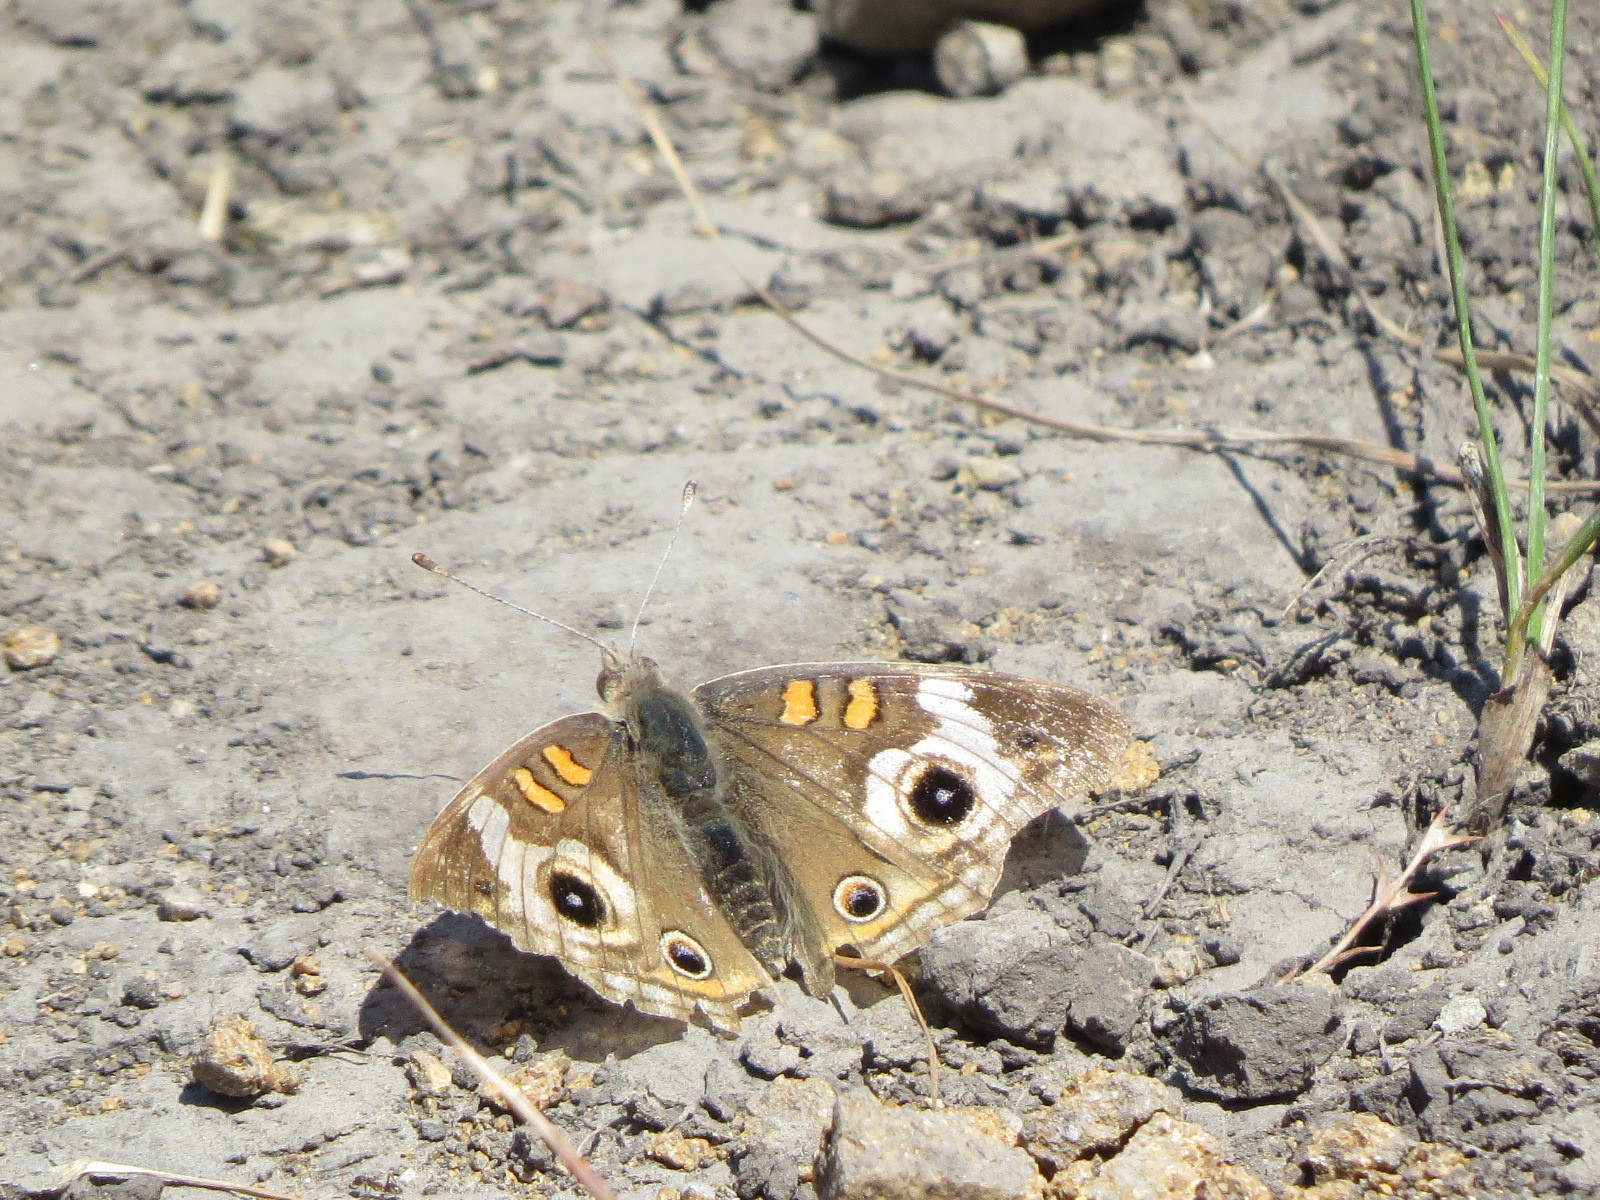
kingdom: Animalia
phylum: Arthropoda
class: Insecta
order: Lepidoptera
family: Nymphalidae
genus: Junonia
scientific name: Junonia grisea
